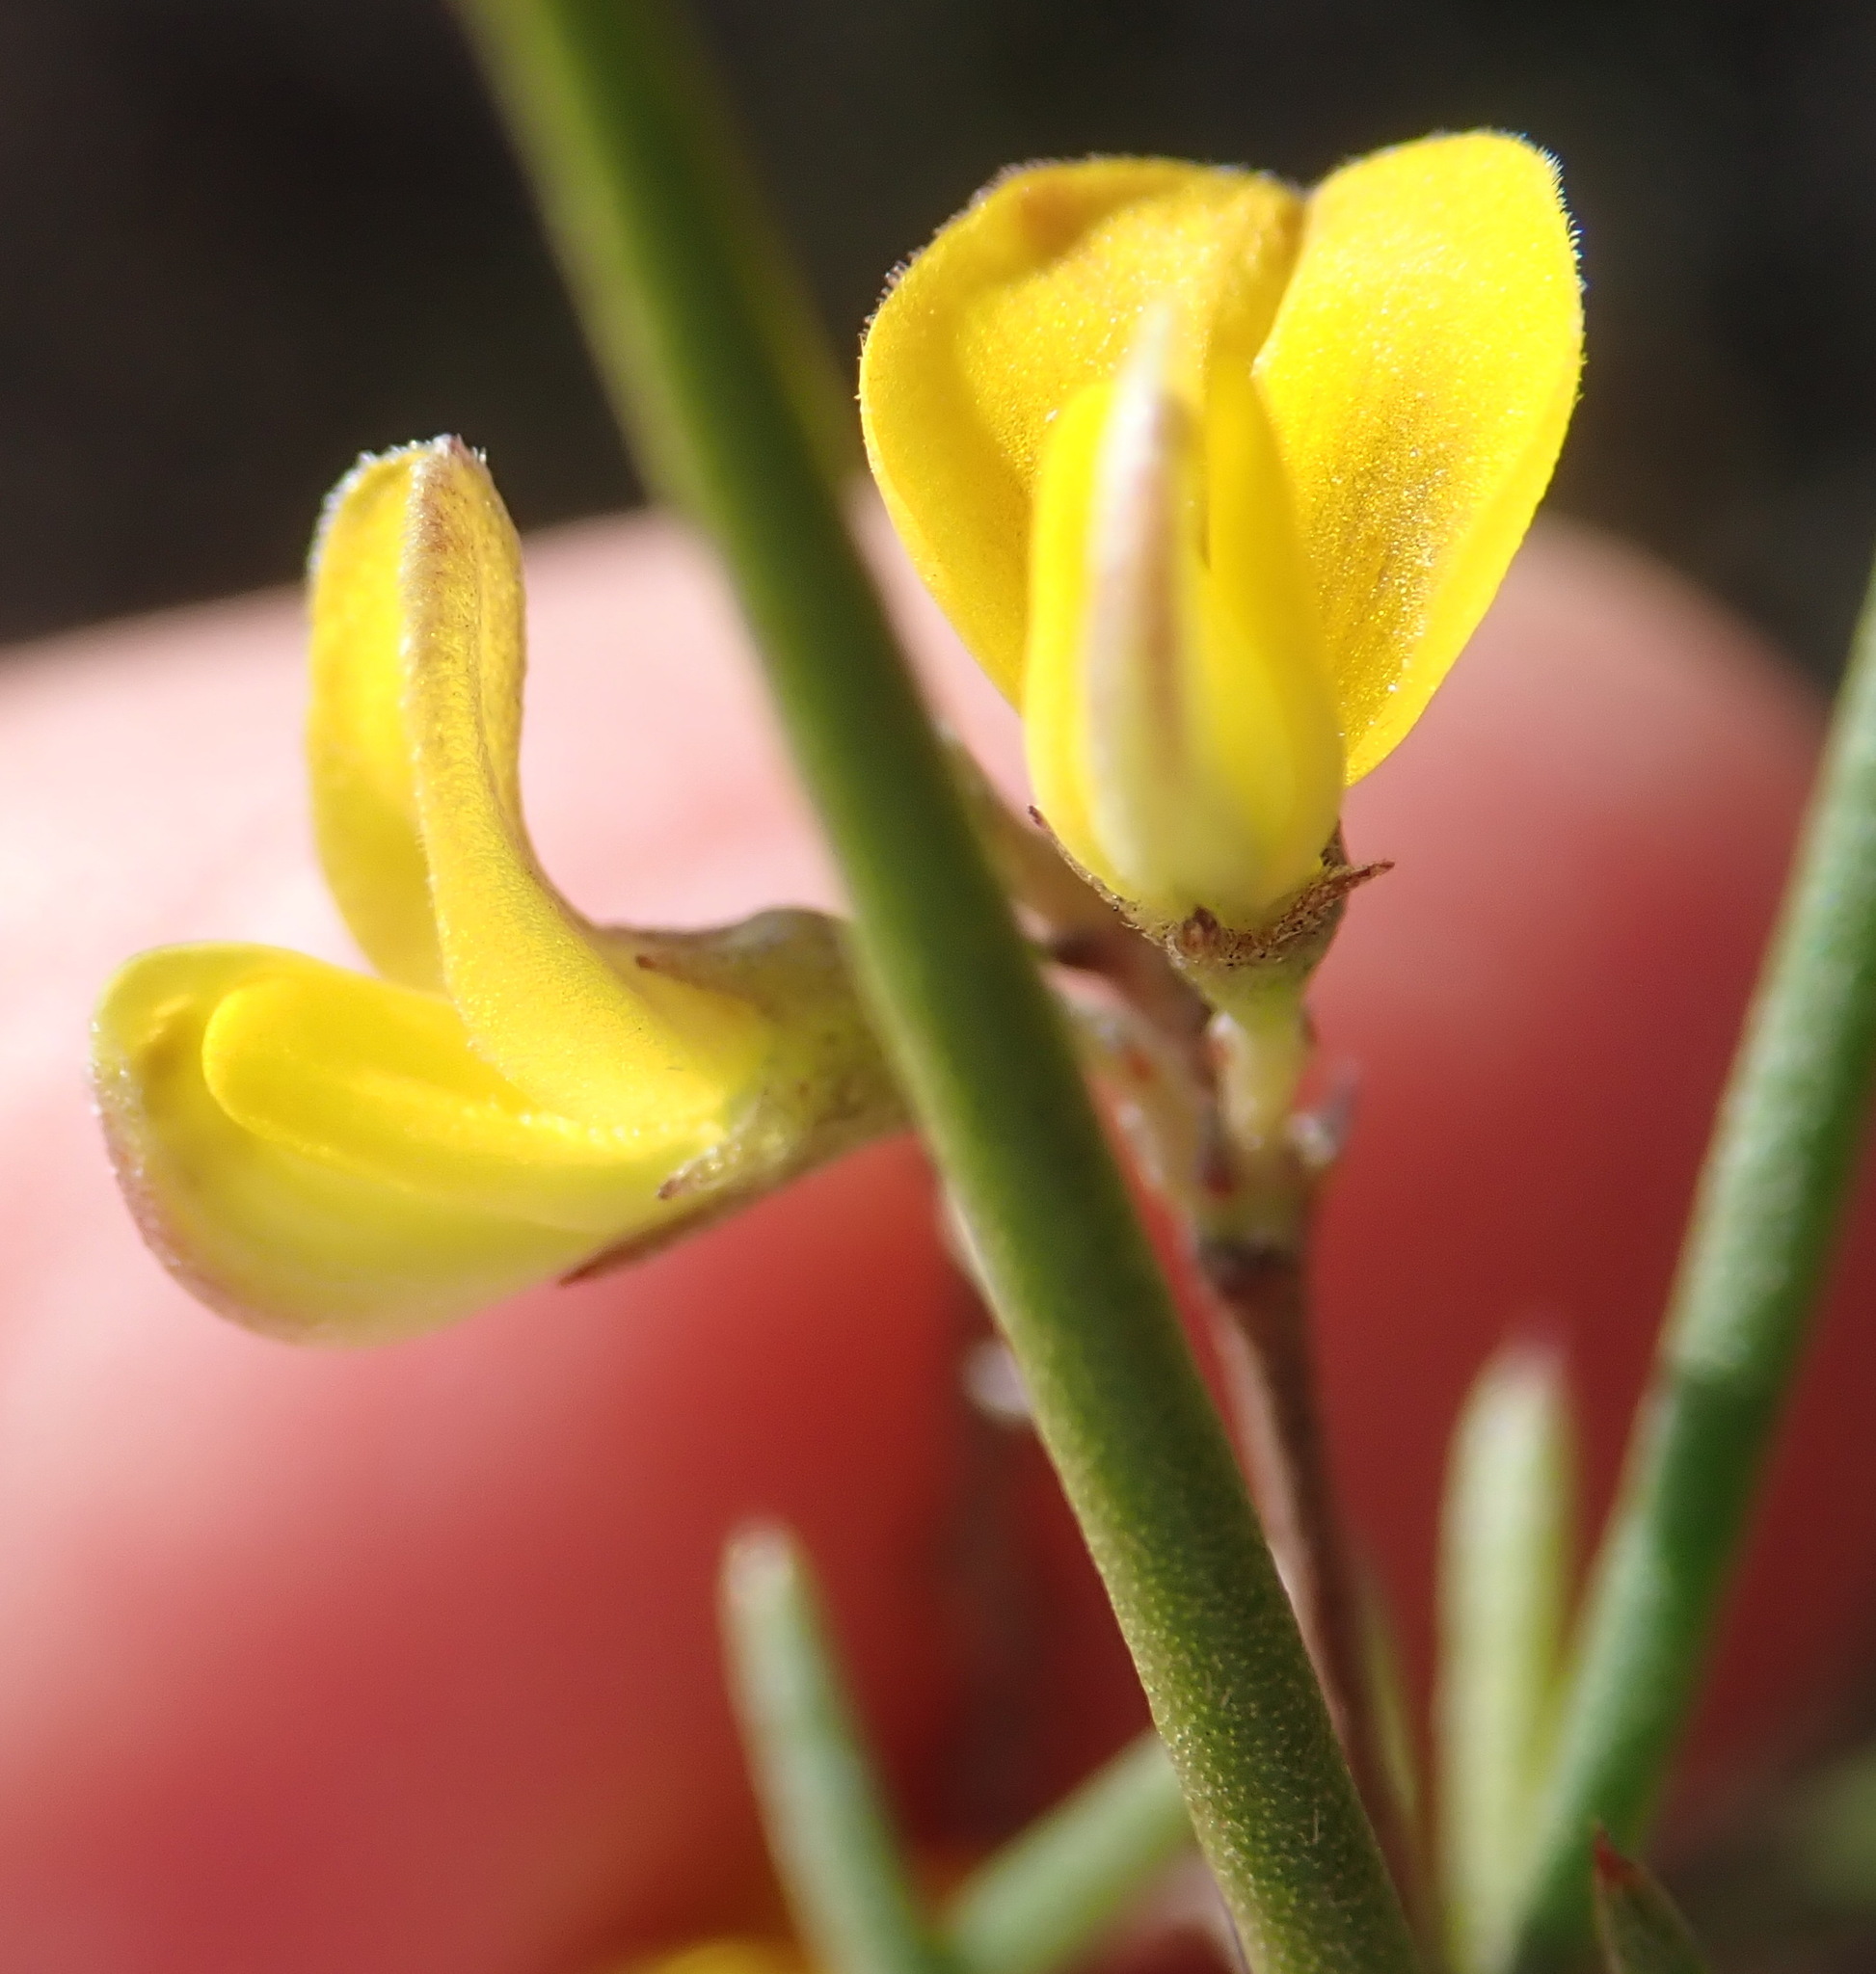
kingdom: Plantae
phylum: Tracheophyta
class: Magnoliopsida
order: Fabales
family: Fabaceae
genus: Aspalathus
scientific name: Aspalathus linearis
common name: Rooibos-tea
